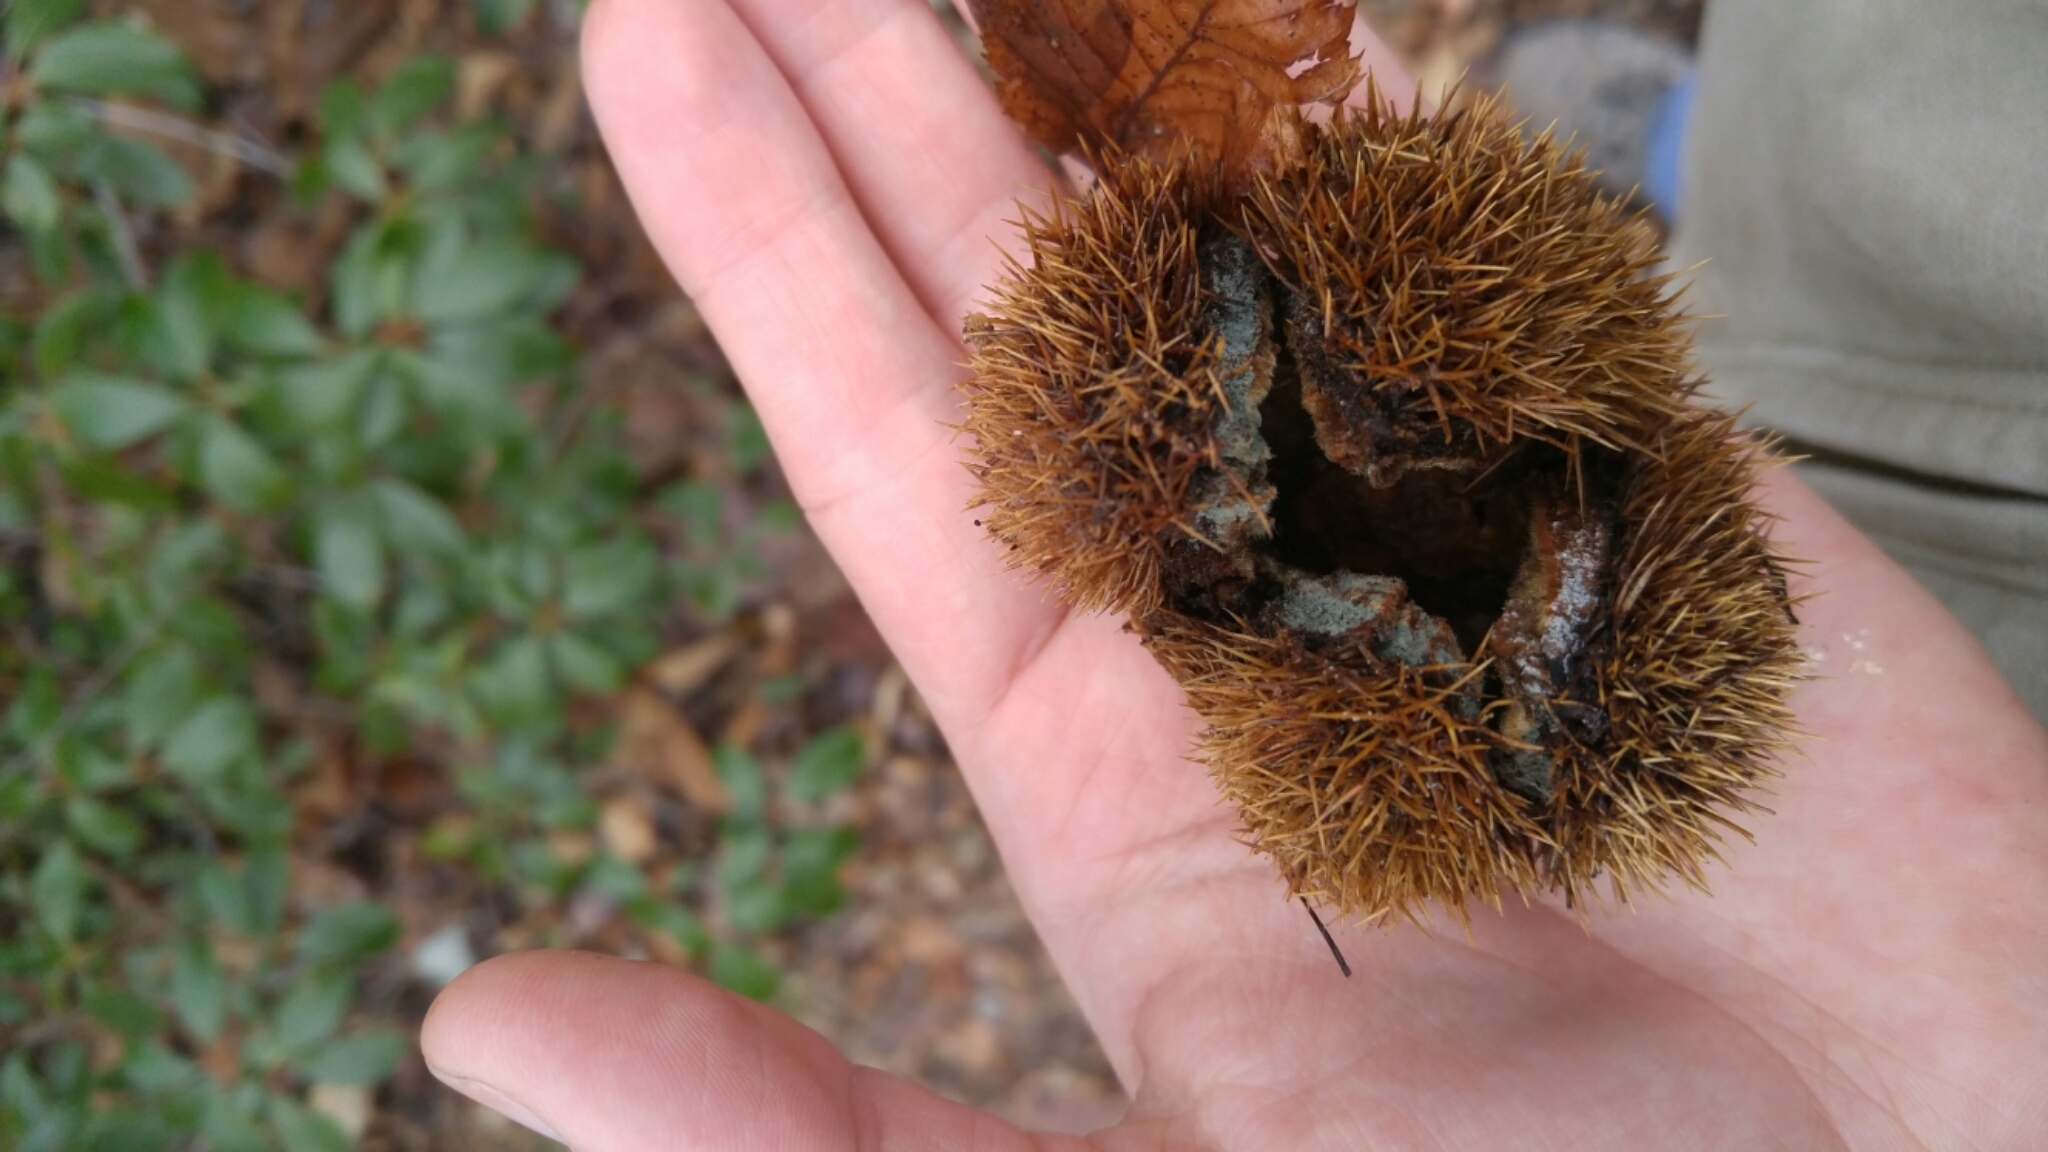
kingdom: Plantae
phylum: Tracheophyta
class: Magnoliopsida
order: Fagales
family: Fagaceae
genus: Castanea
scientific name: Castanea dentata
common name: American chestnut
